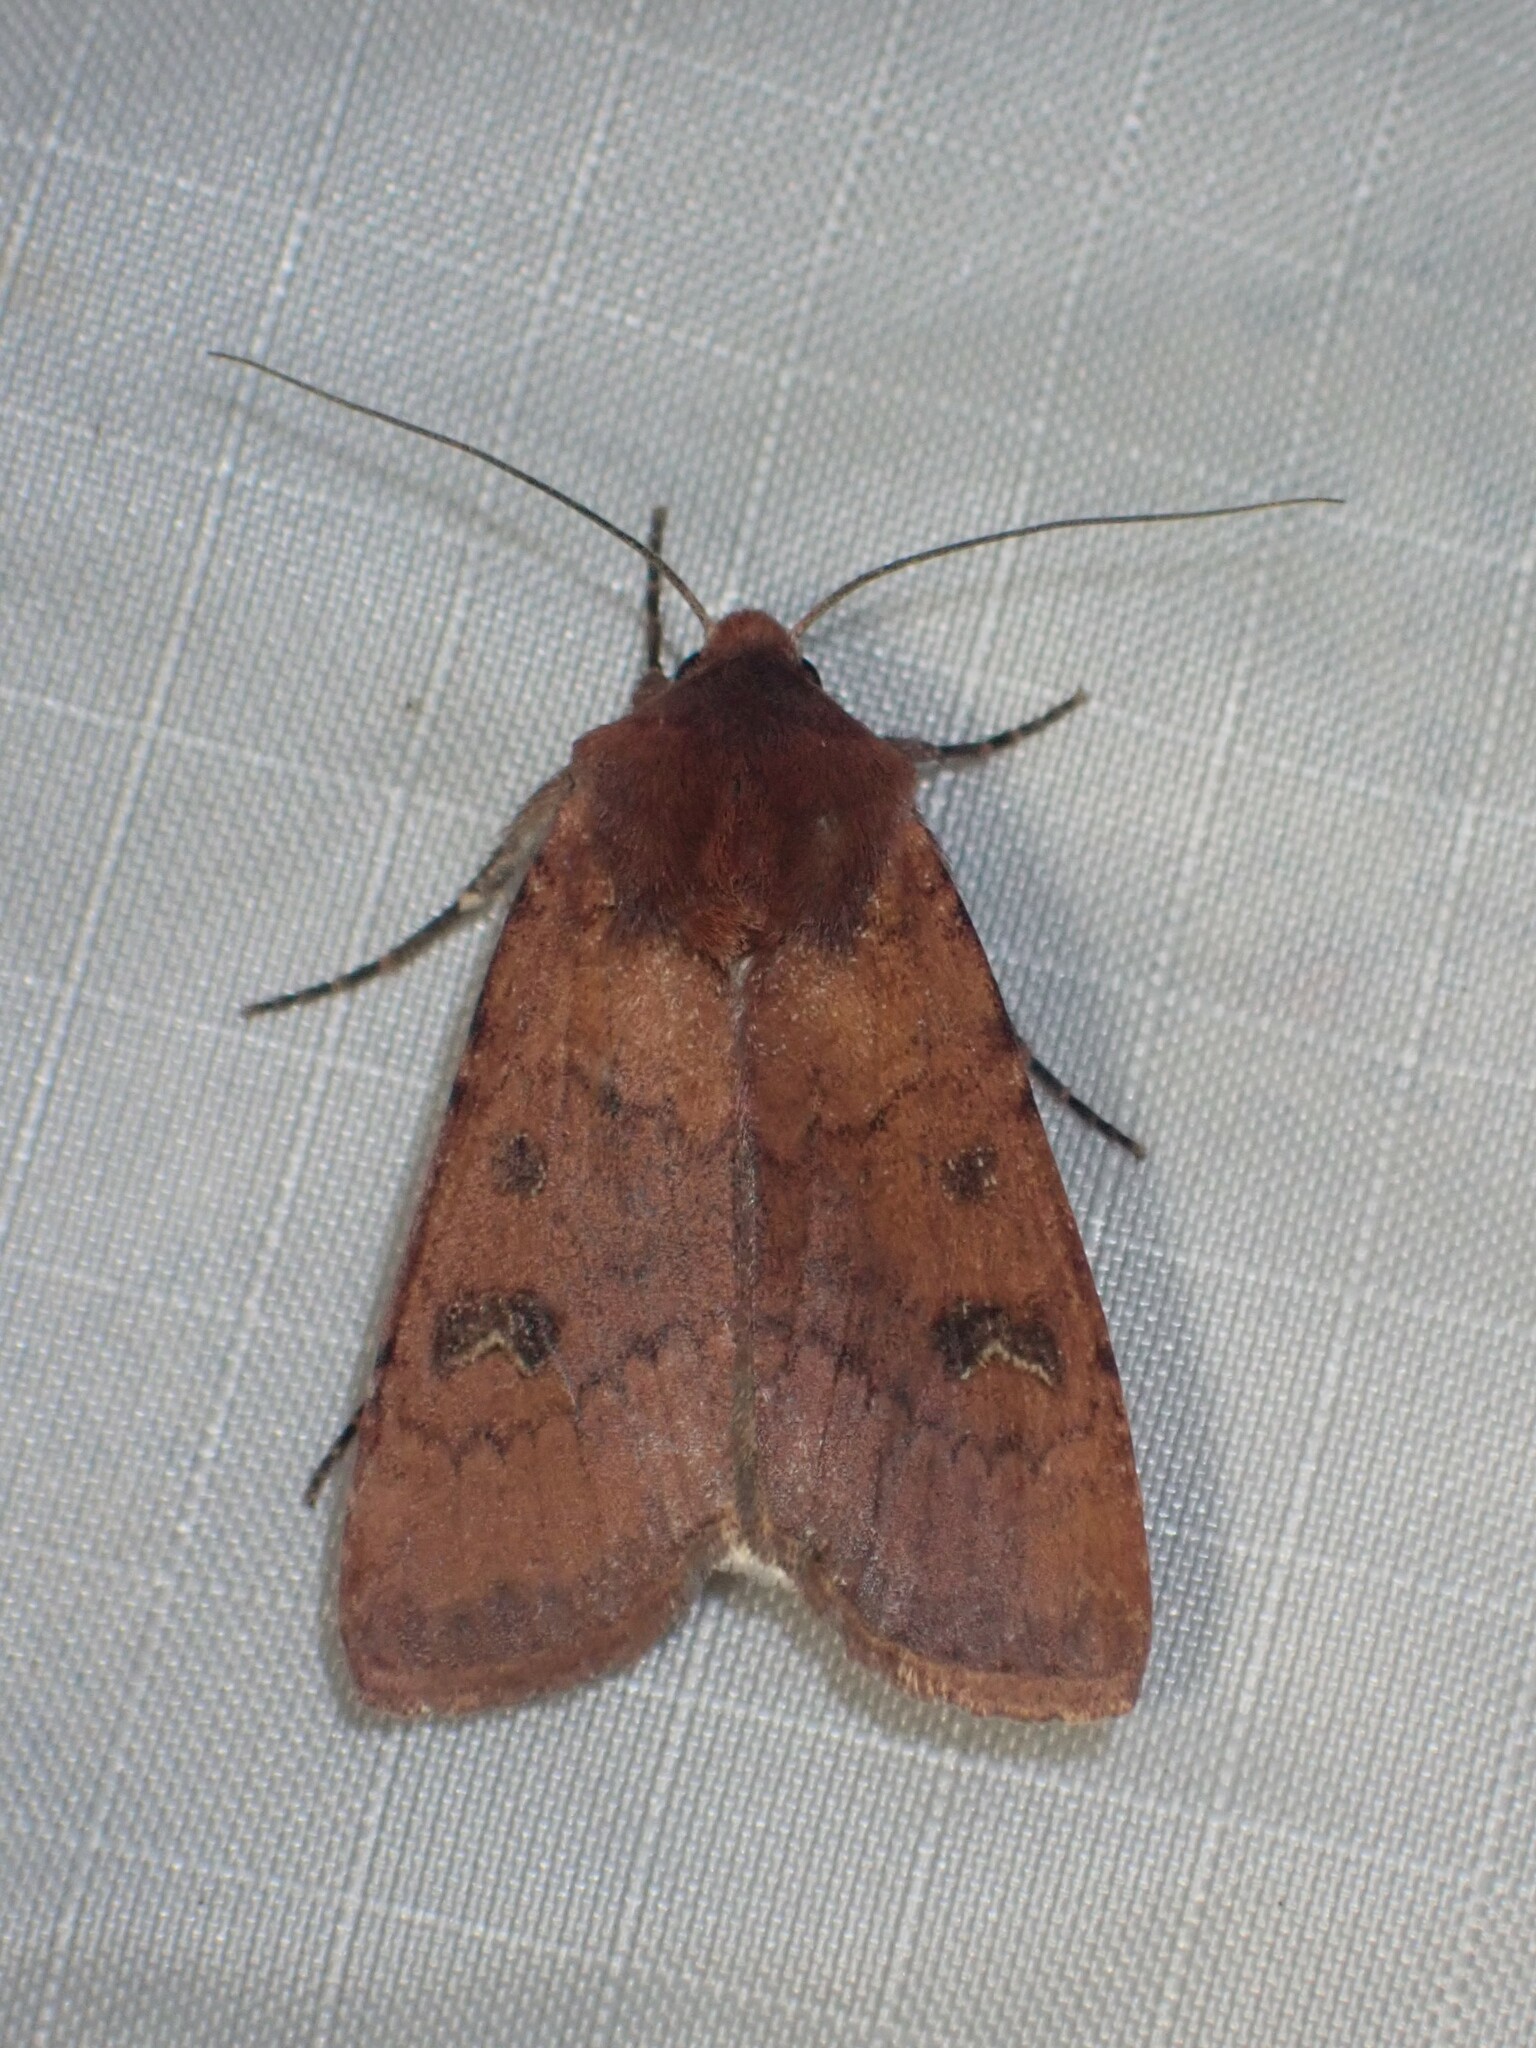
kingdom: Animalia
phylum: Arthropoda
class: Insecta
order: Lepidoptera
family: Noctuidae
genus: Euxoa
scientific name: Euxoa mimallonis
